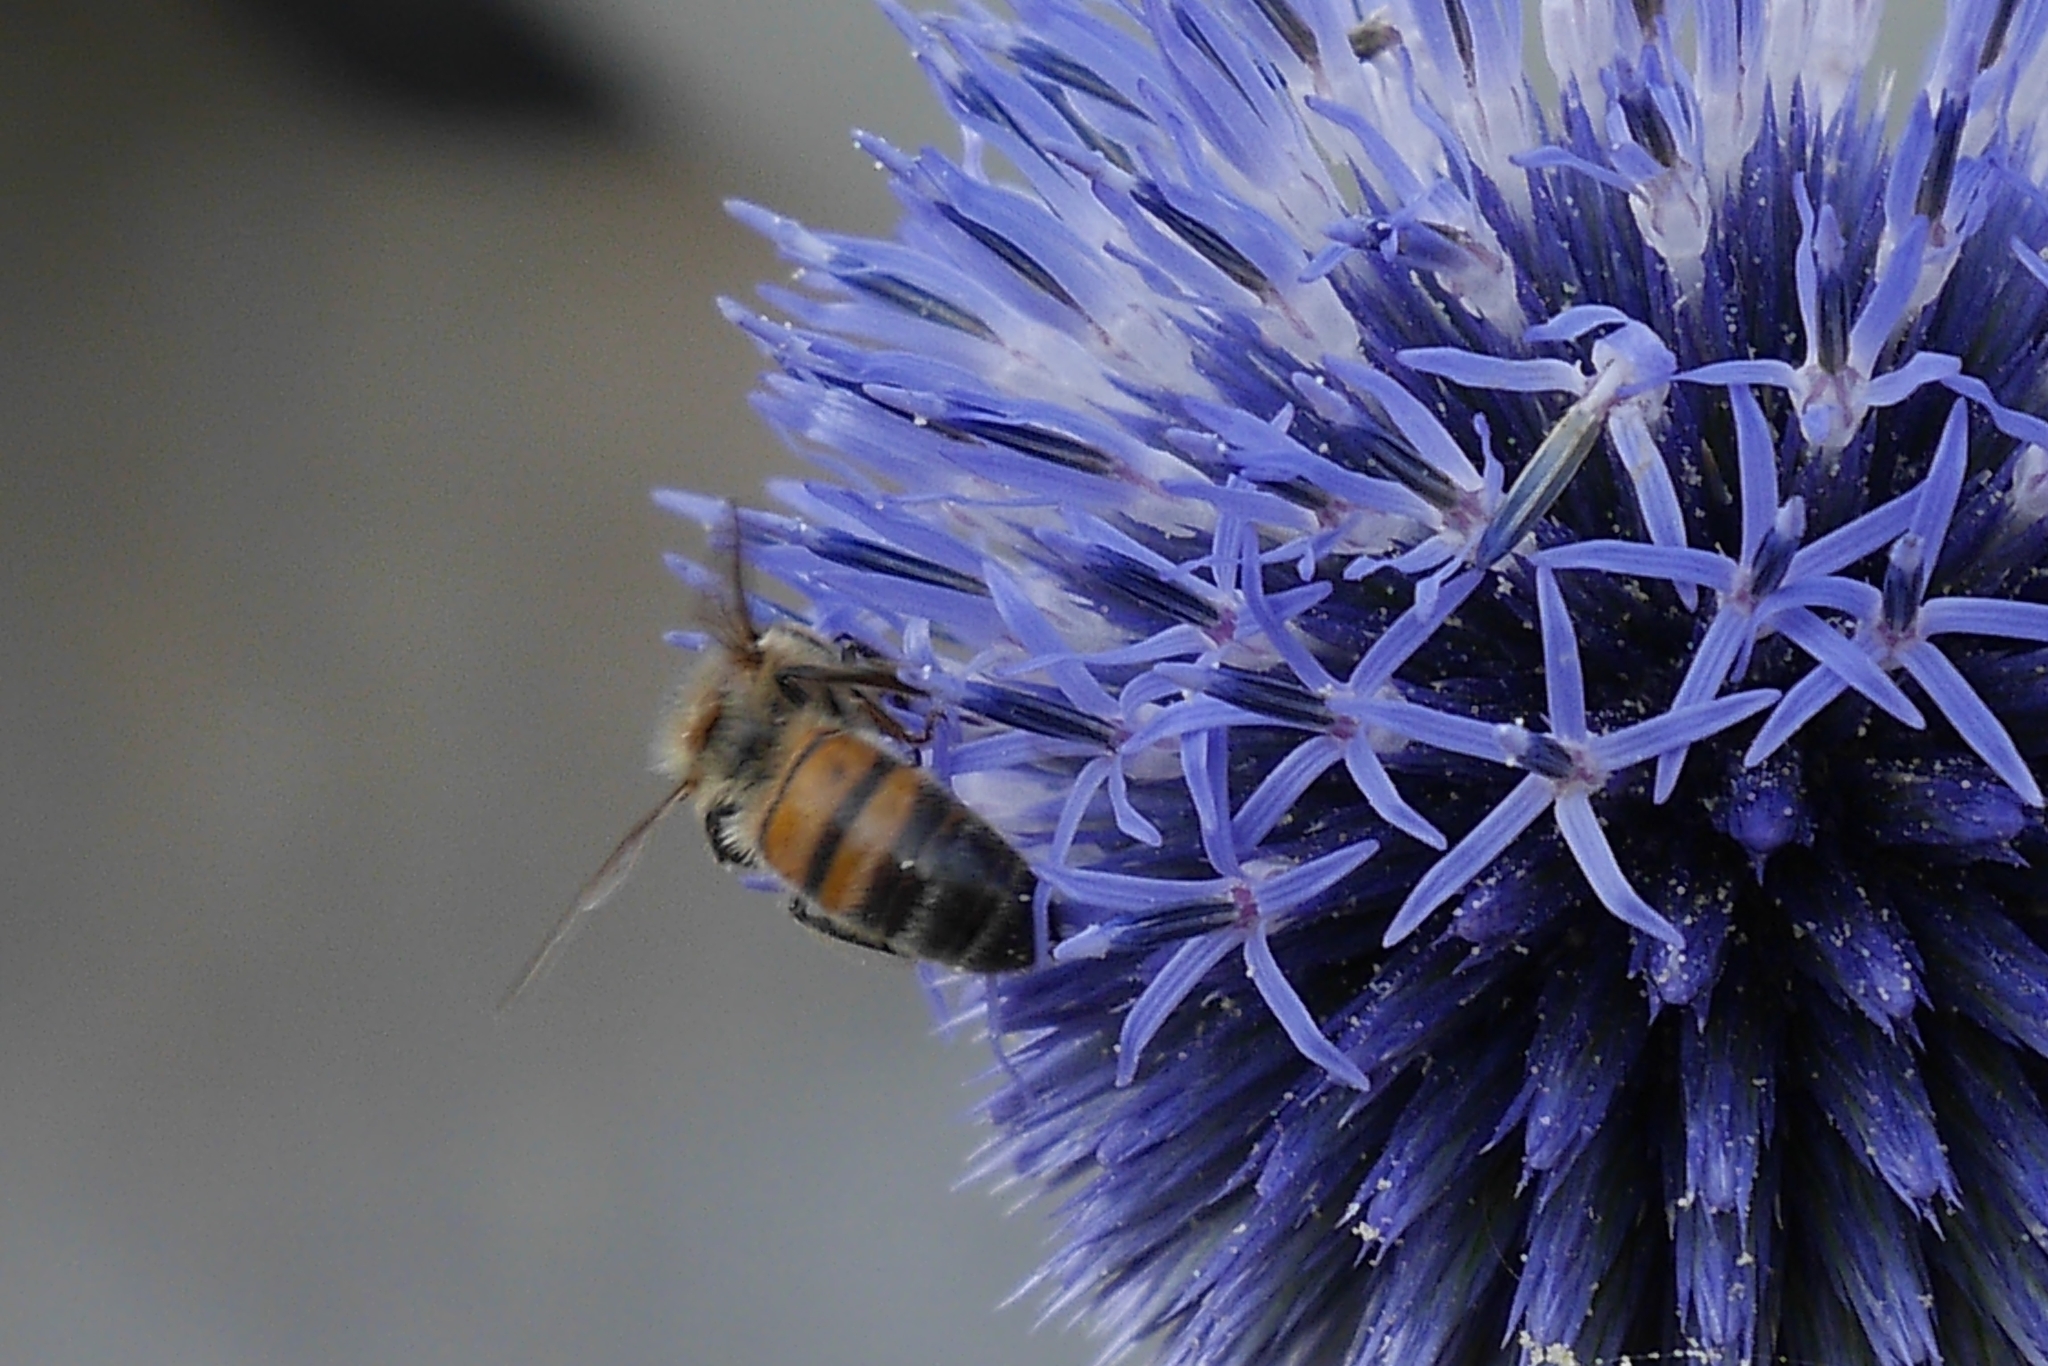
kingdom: Animalia
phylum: Arthropoda
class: Insecta
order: Hymenoptera
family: Apidae
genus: Apis
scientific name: Apis mellifera
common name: Honey bee
